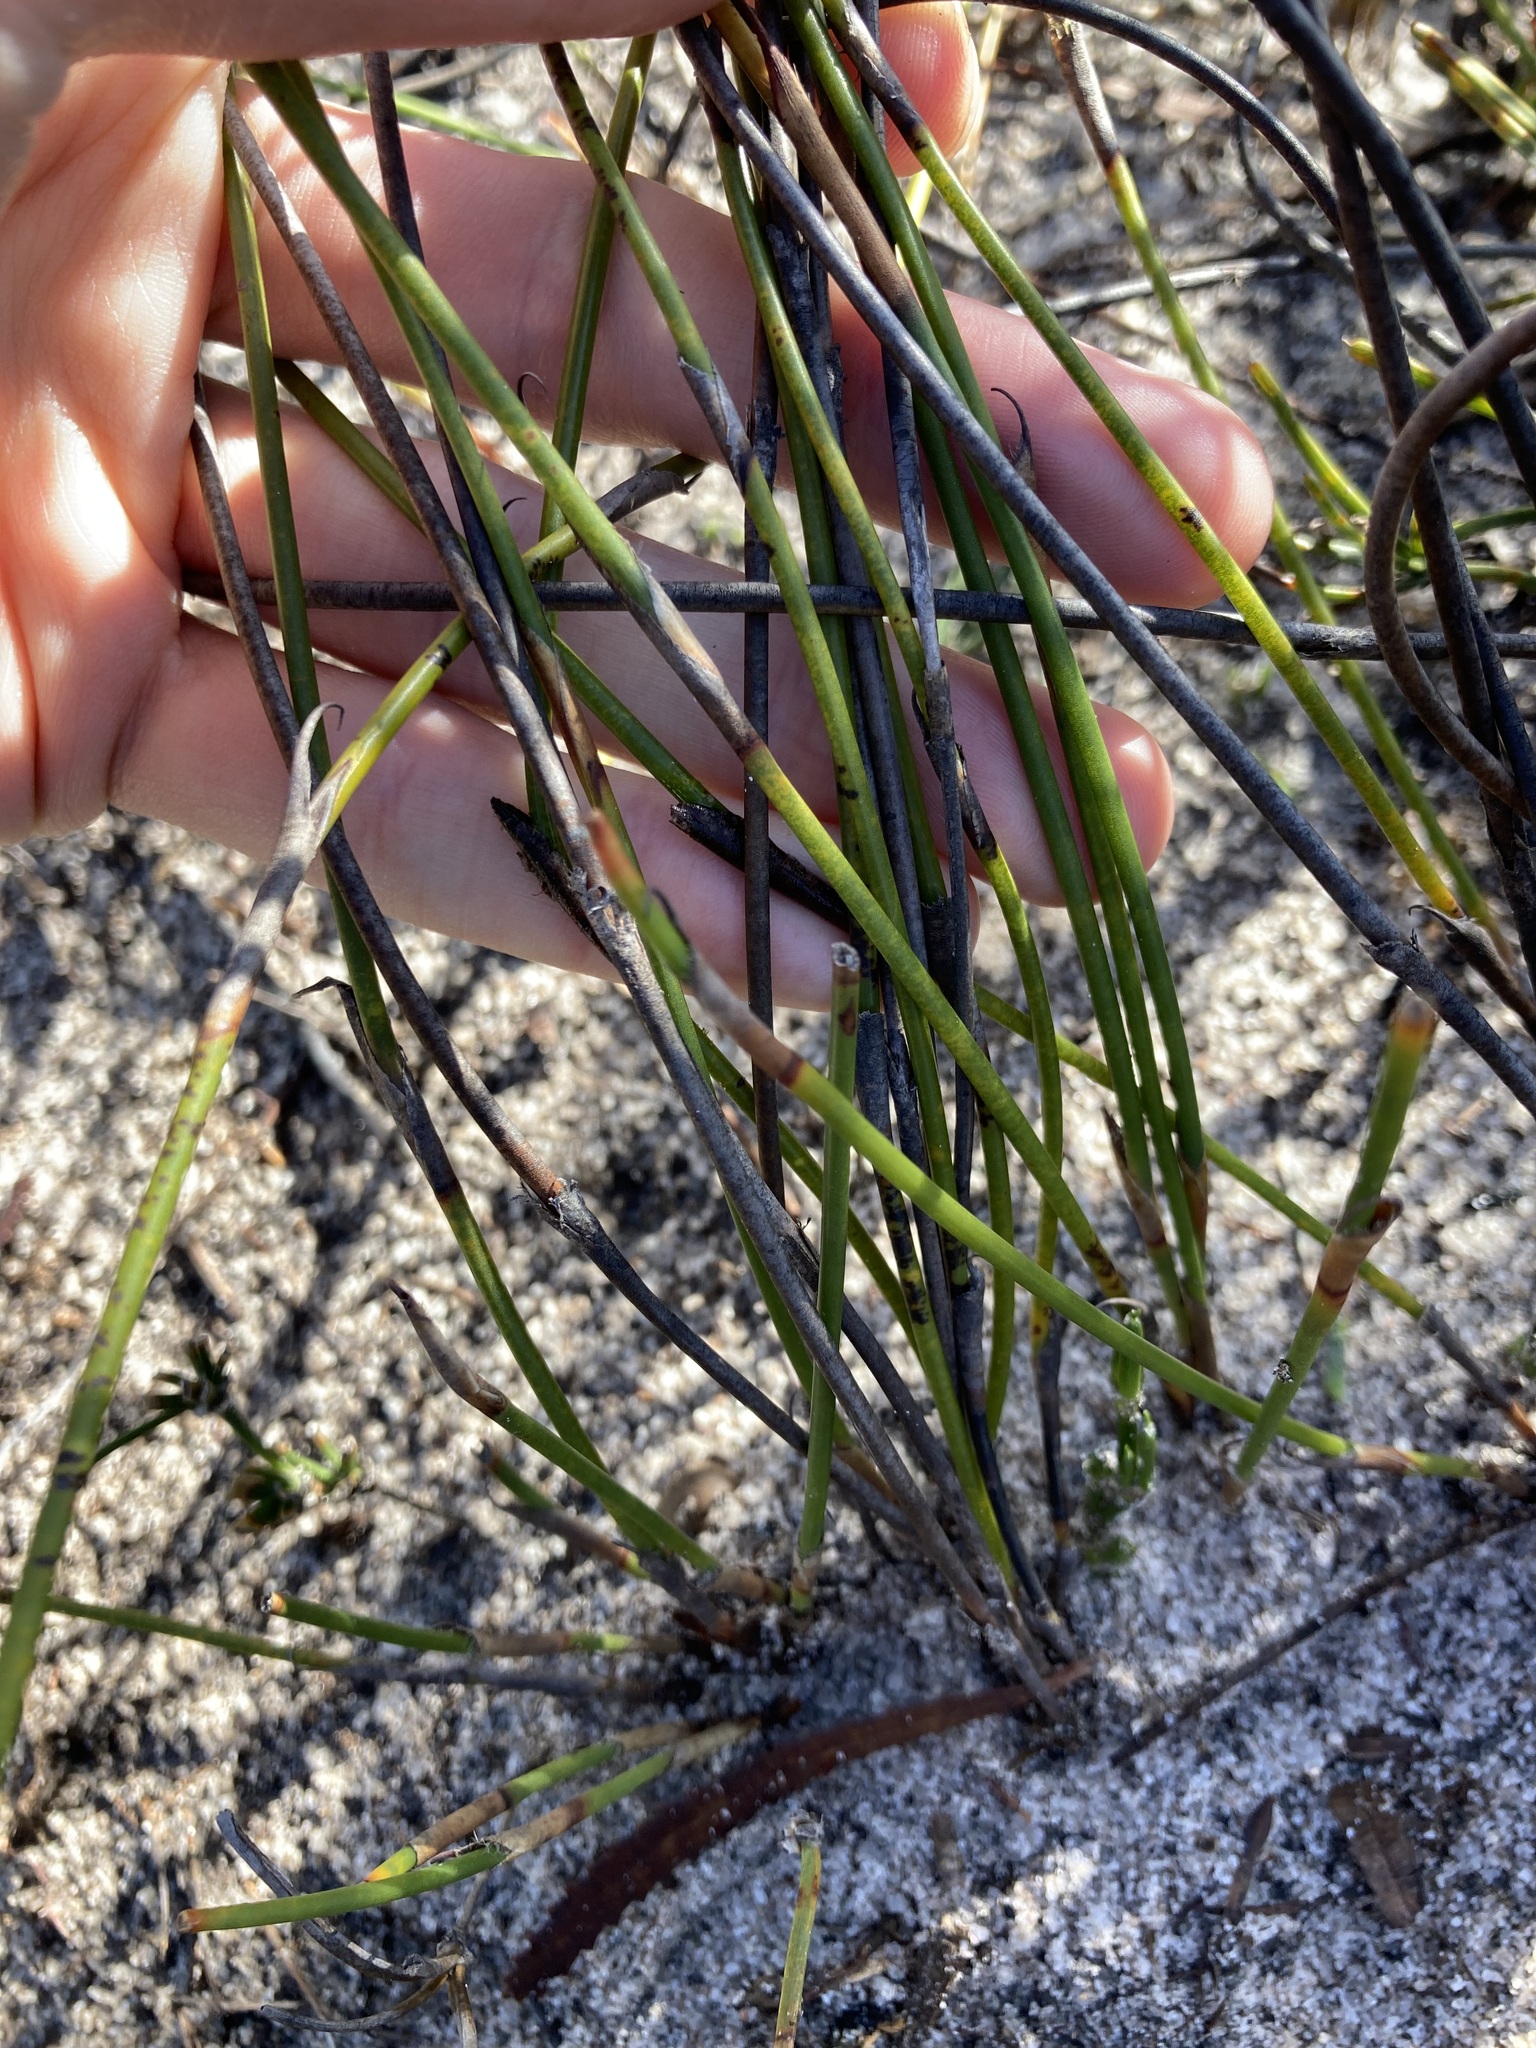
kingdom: Plantae
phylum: Tracheophyta
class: Liliopsida
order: Poales
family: Restionaceae
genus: Lyginia
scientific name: Lyginia barbata
